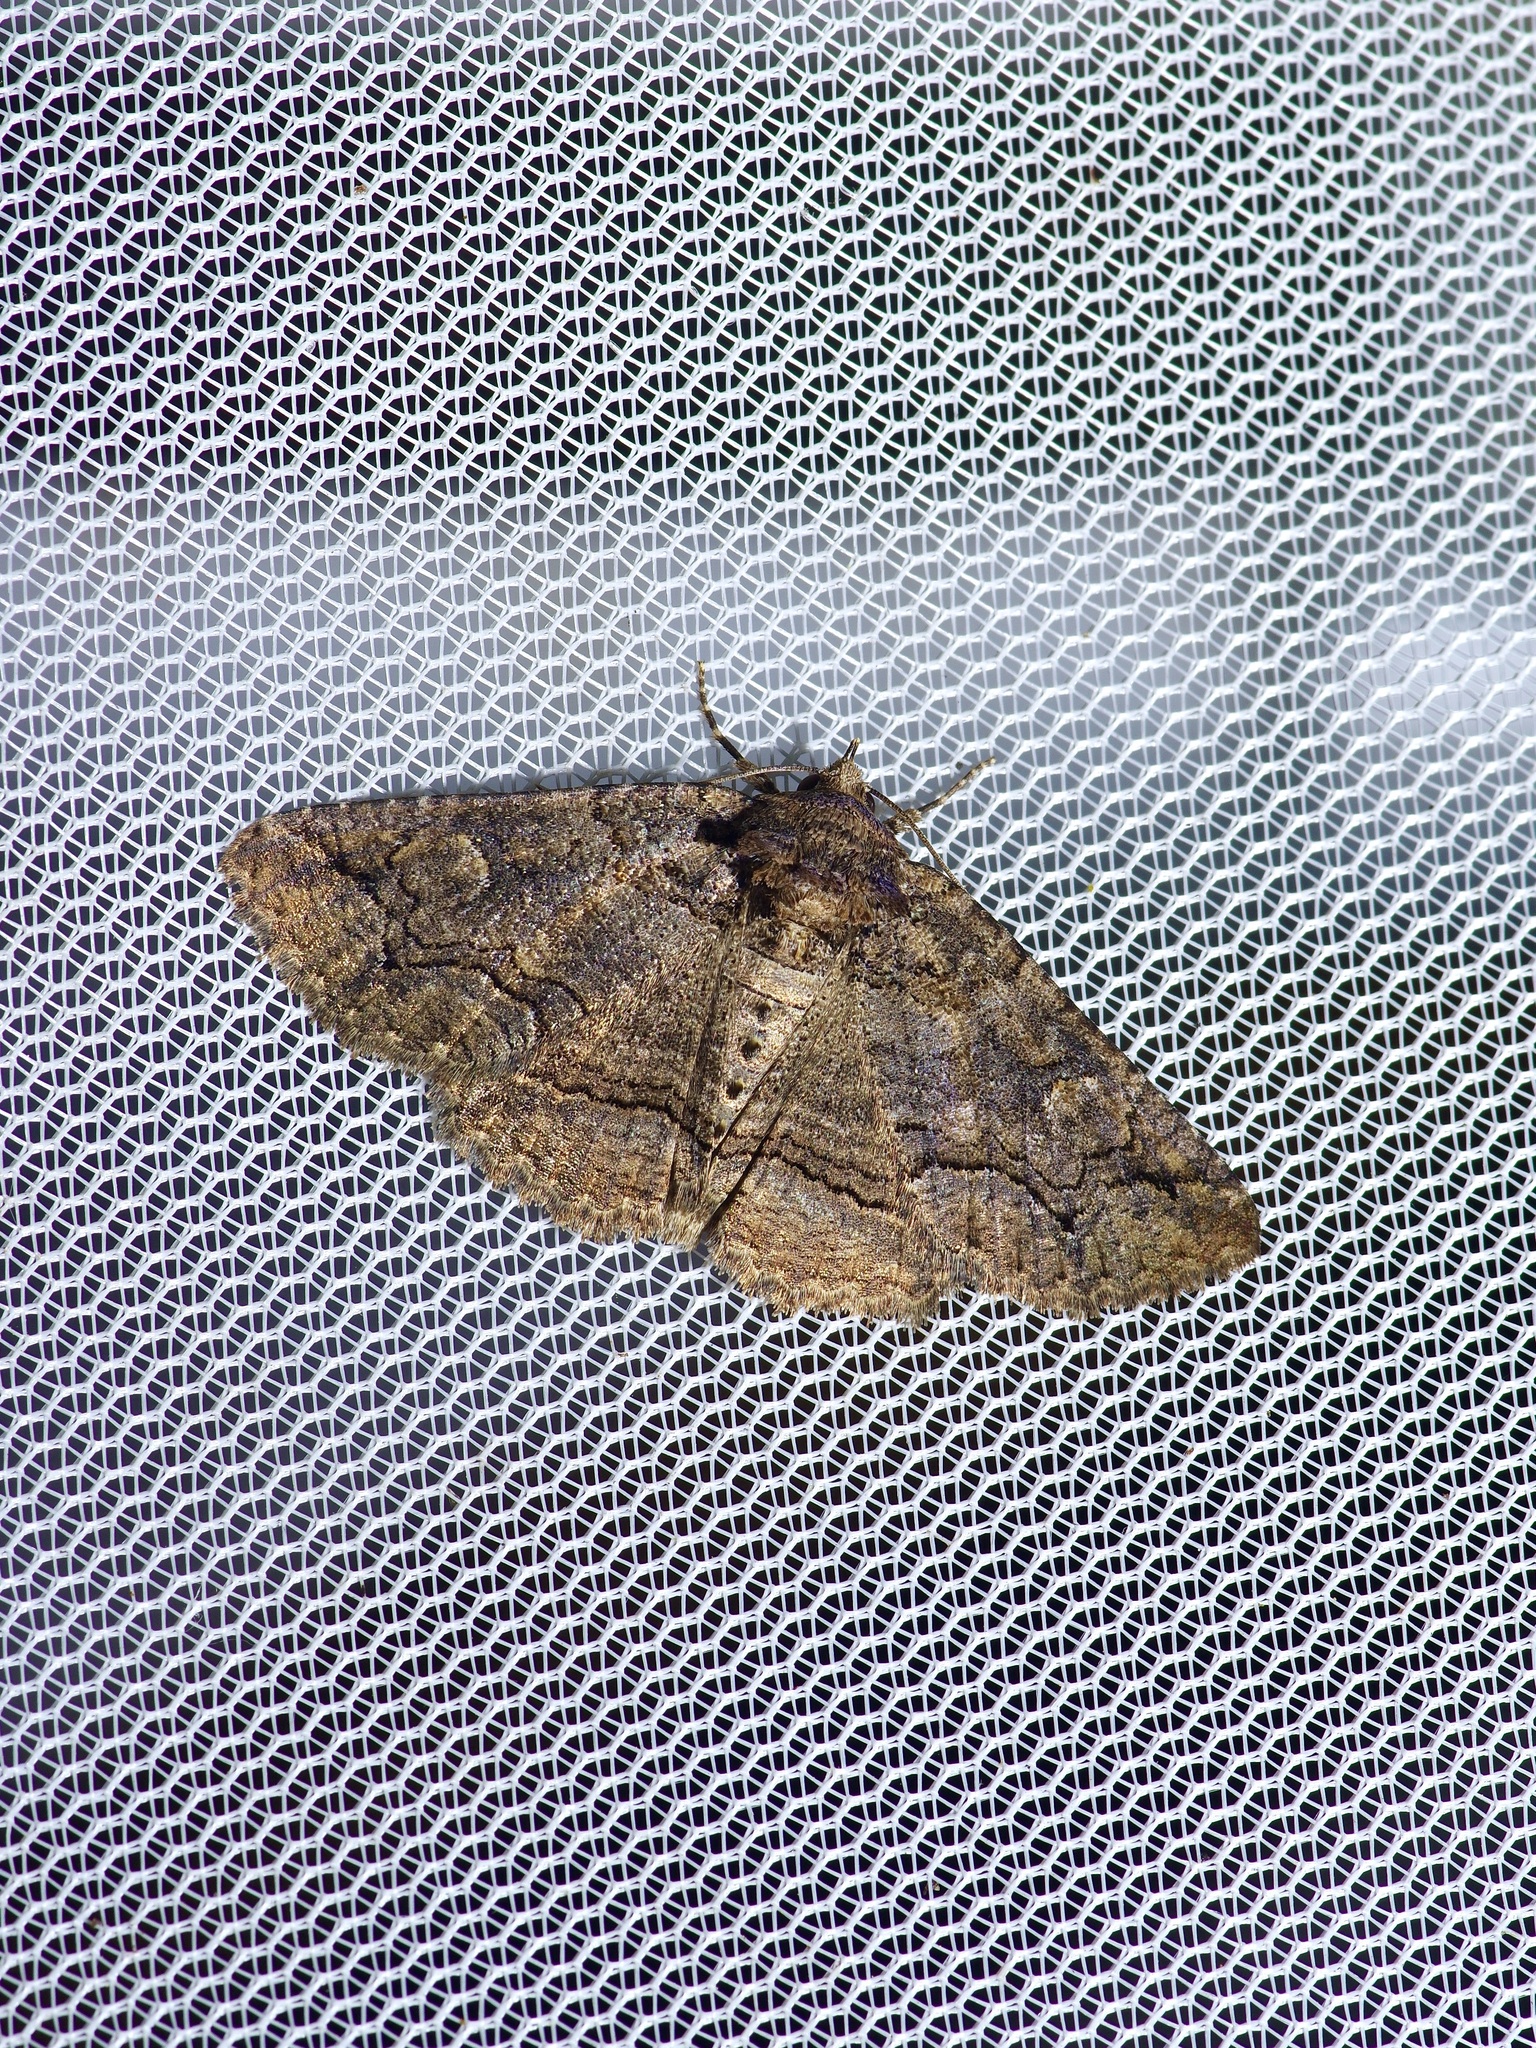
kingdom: Animalia
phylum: Arthropoda
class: Insecta
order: Lepidoptera
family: Erebidae
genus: Zale
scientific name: Zale edusina
